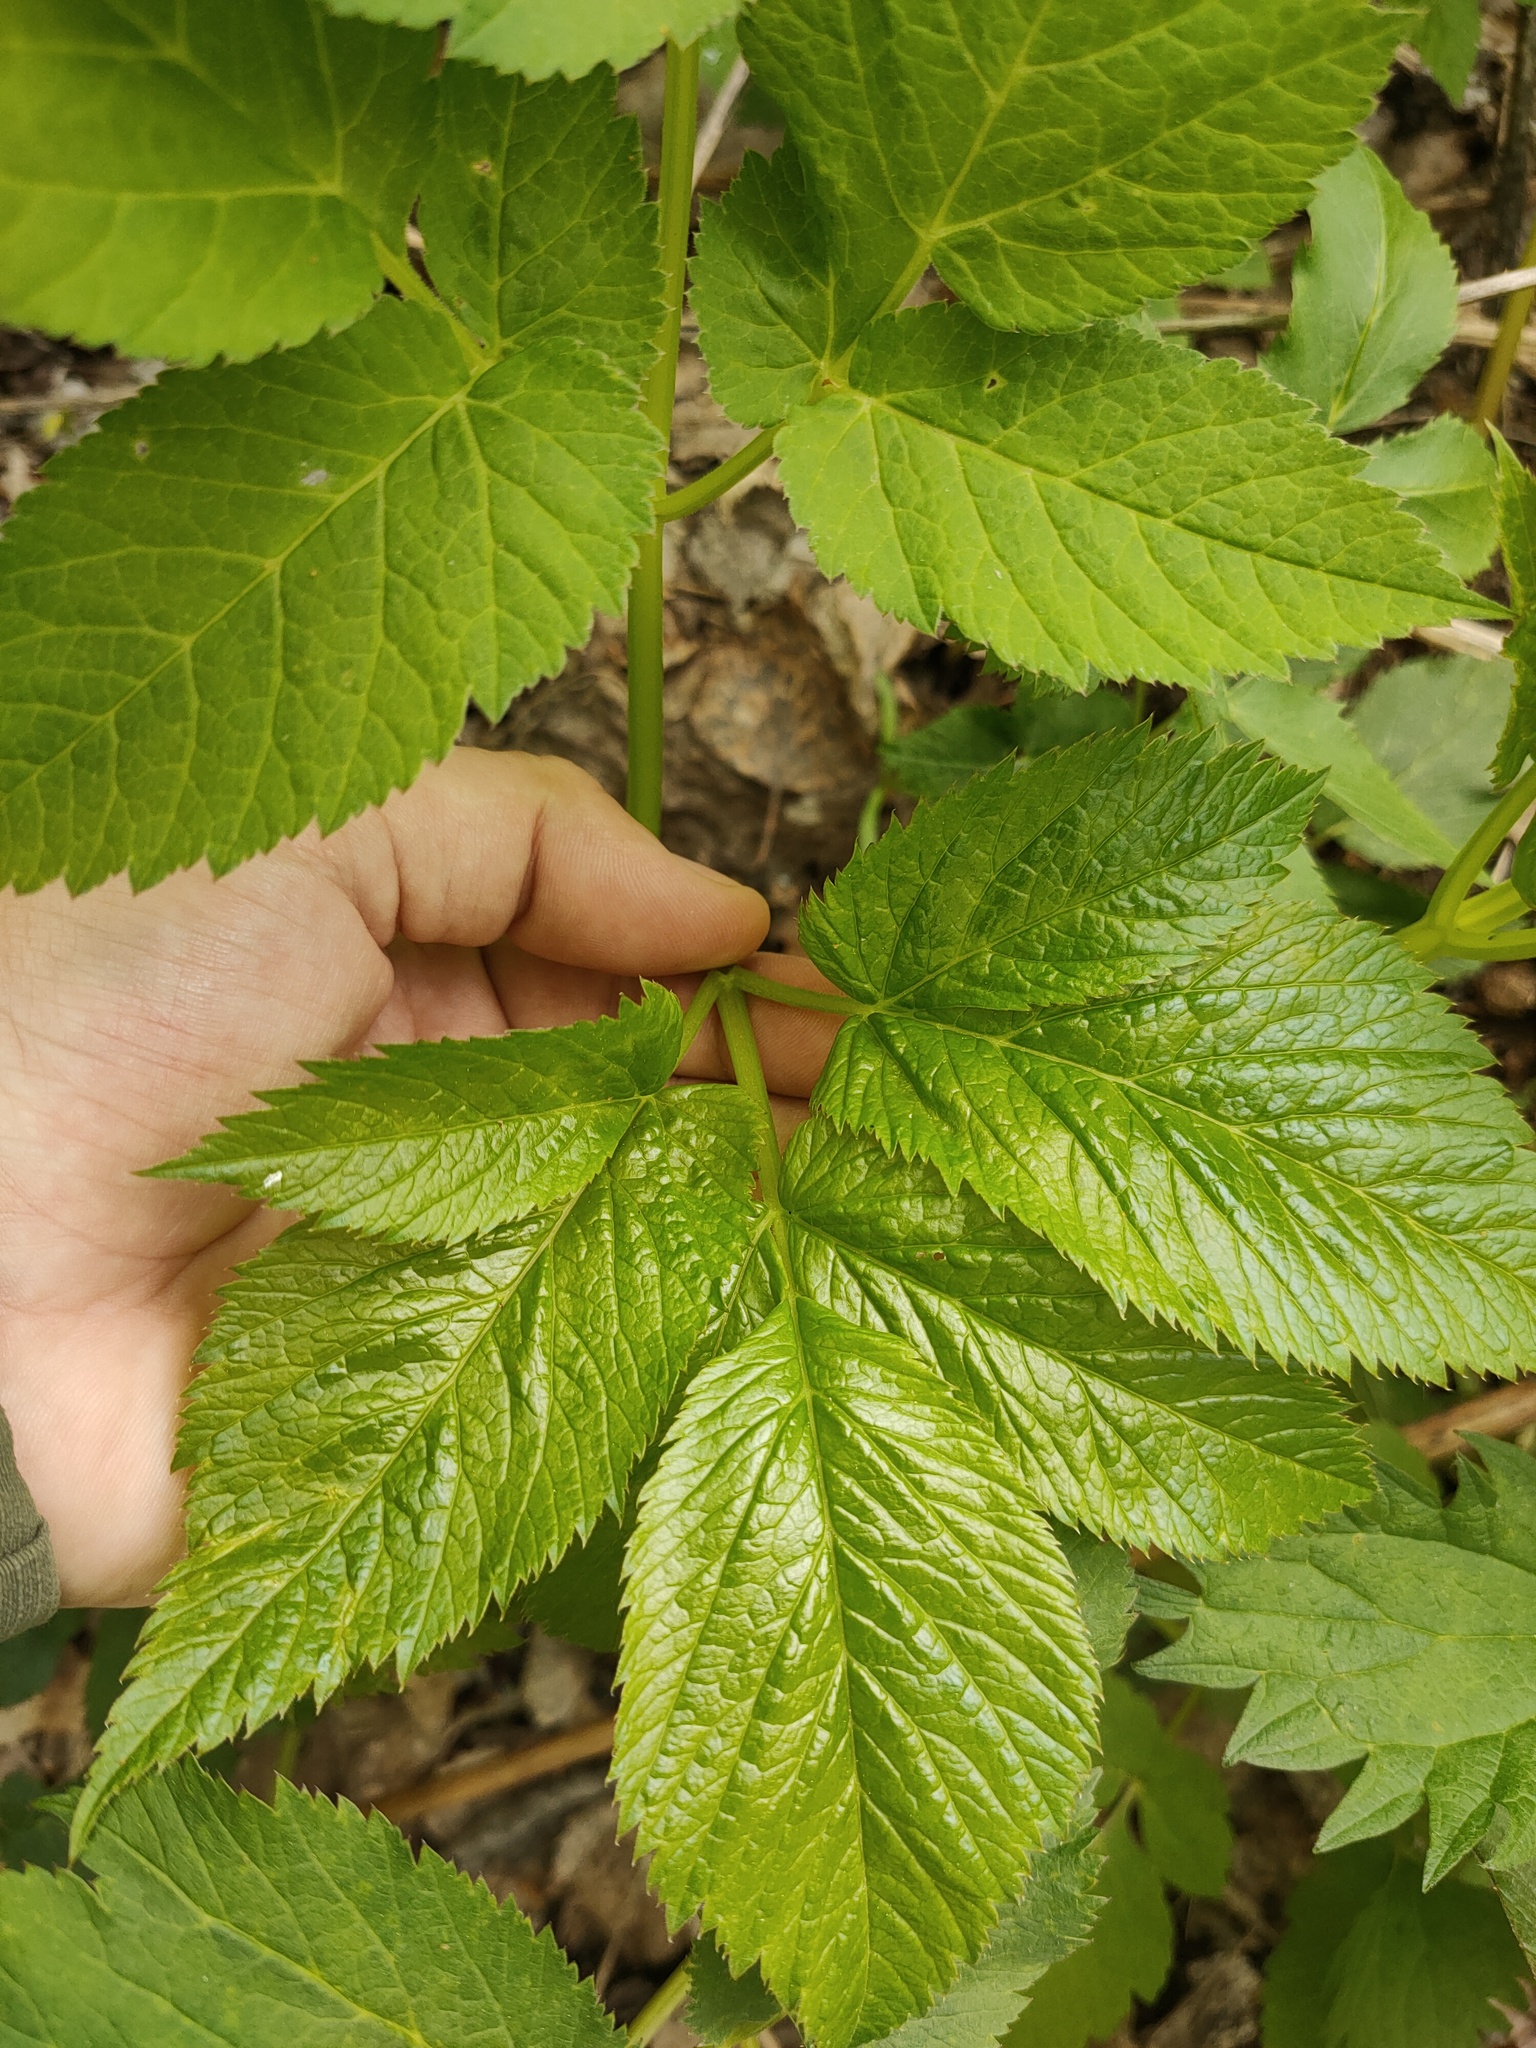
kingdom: Plantae
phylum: Tracheophyta
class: Magnoliopsida
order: Apiales
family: Apiaceae
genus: Aegopodium
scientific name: Aegopodium podagraria
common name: Ground-elder
